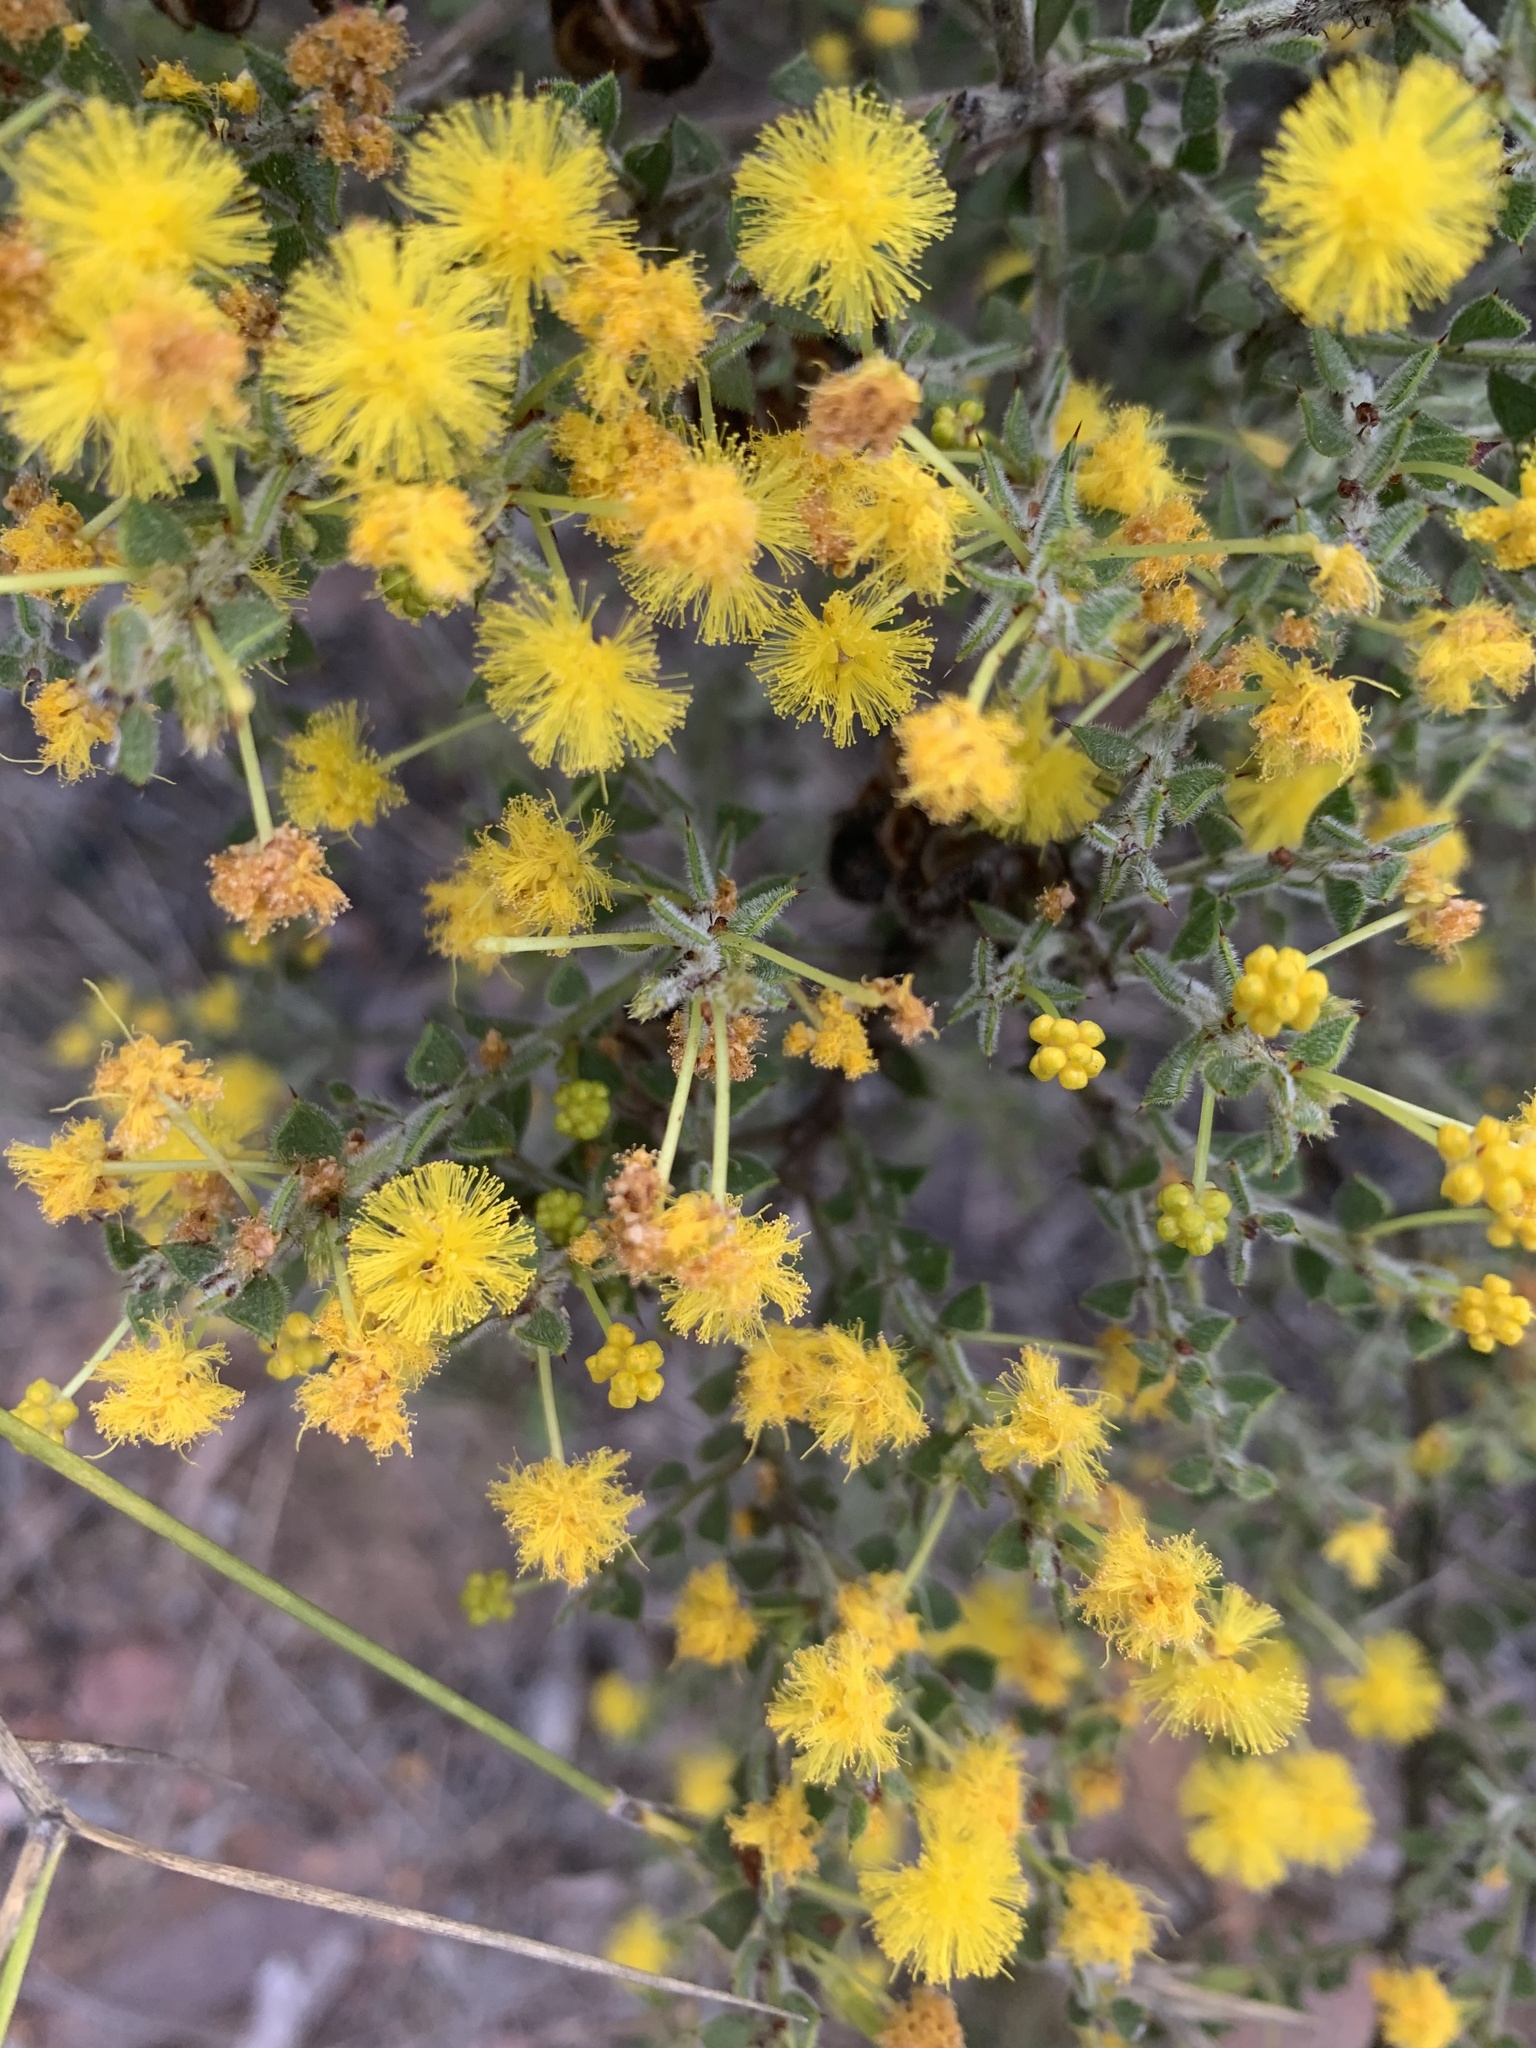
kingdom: Plantae
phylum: Tracheophyta
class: Magnoliopsida
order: Fabales
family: Fabaceae
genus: Acacia
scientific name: Acacia pravifolia
